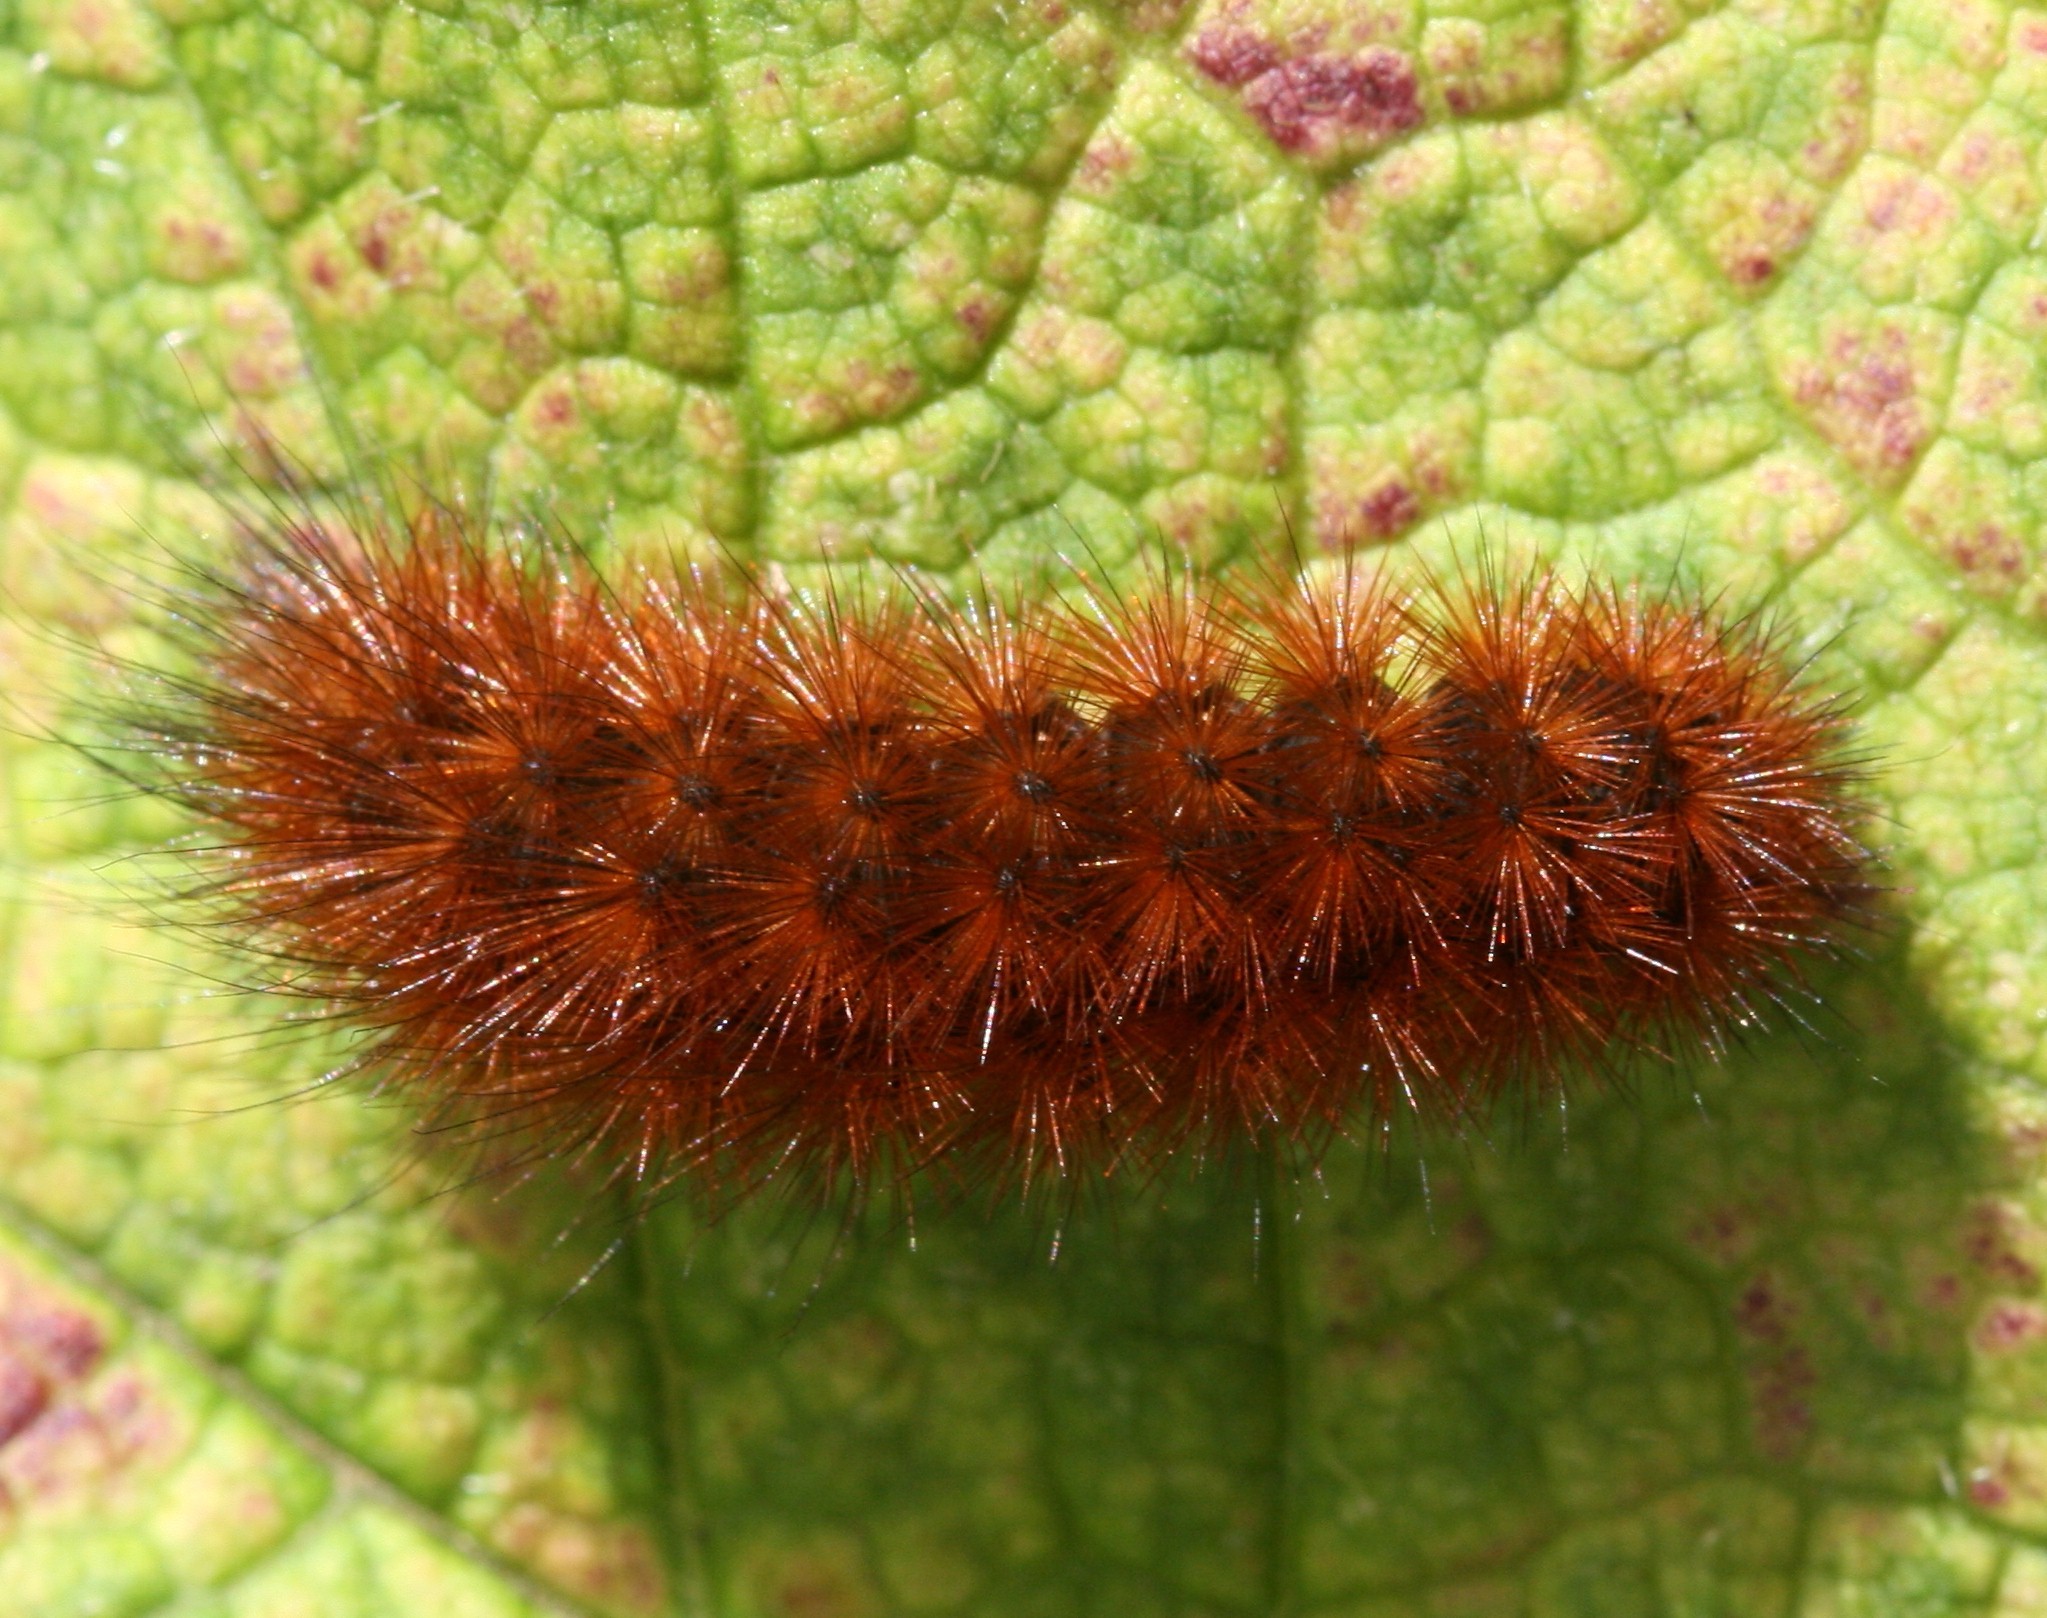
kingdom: Animalia
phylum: Arthropoda
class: Insecta
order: Lepidoptera
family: Erebidae
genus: Phragmatobia
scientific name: Phragmatobia fuliginosa
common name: Ruby tiger
